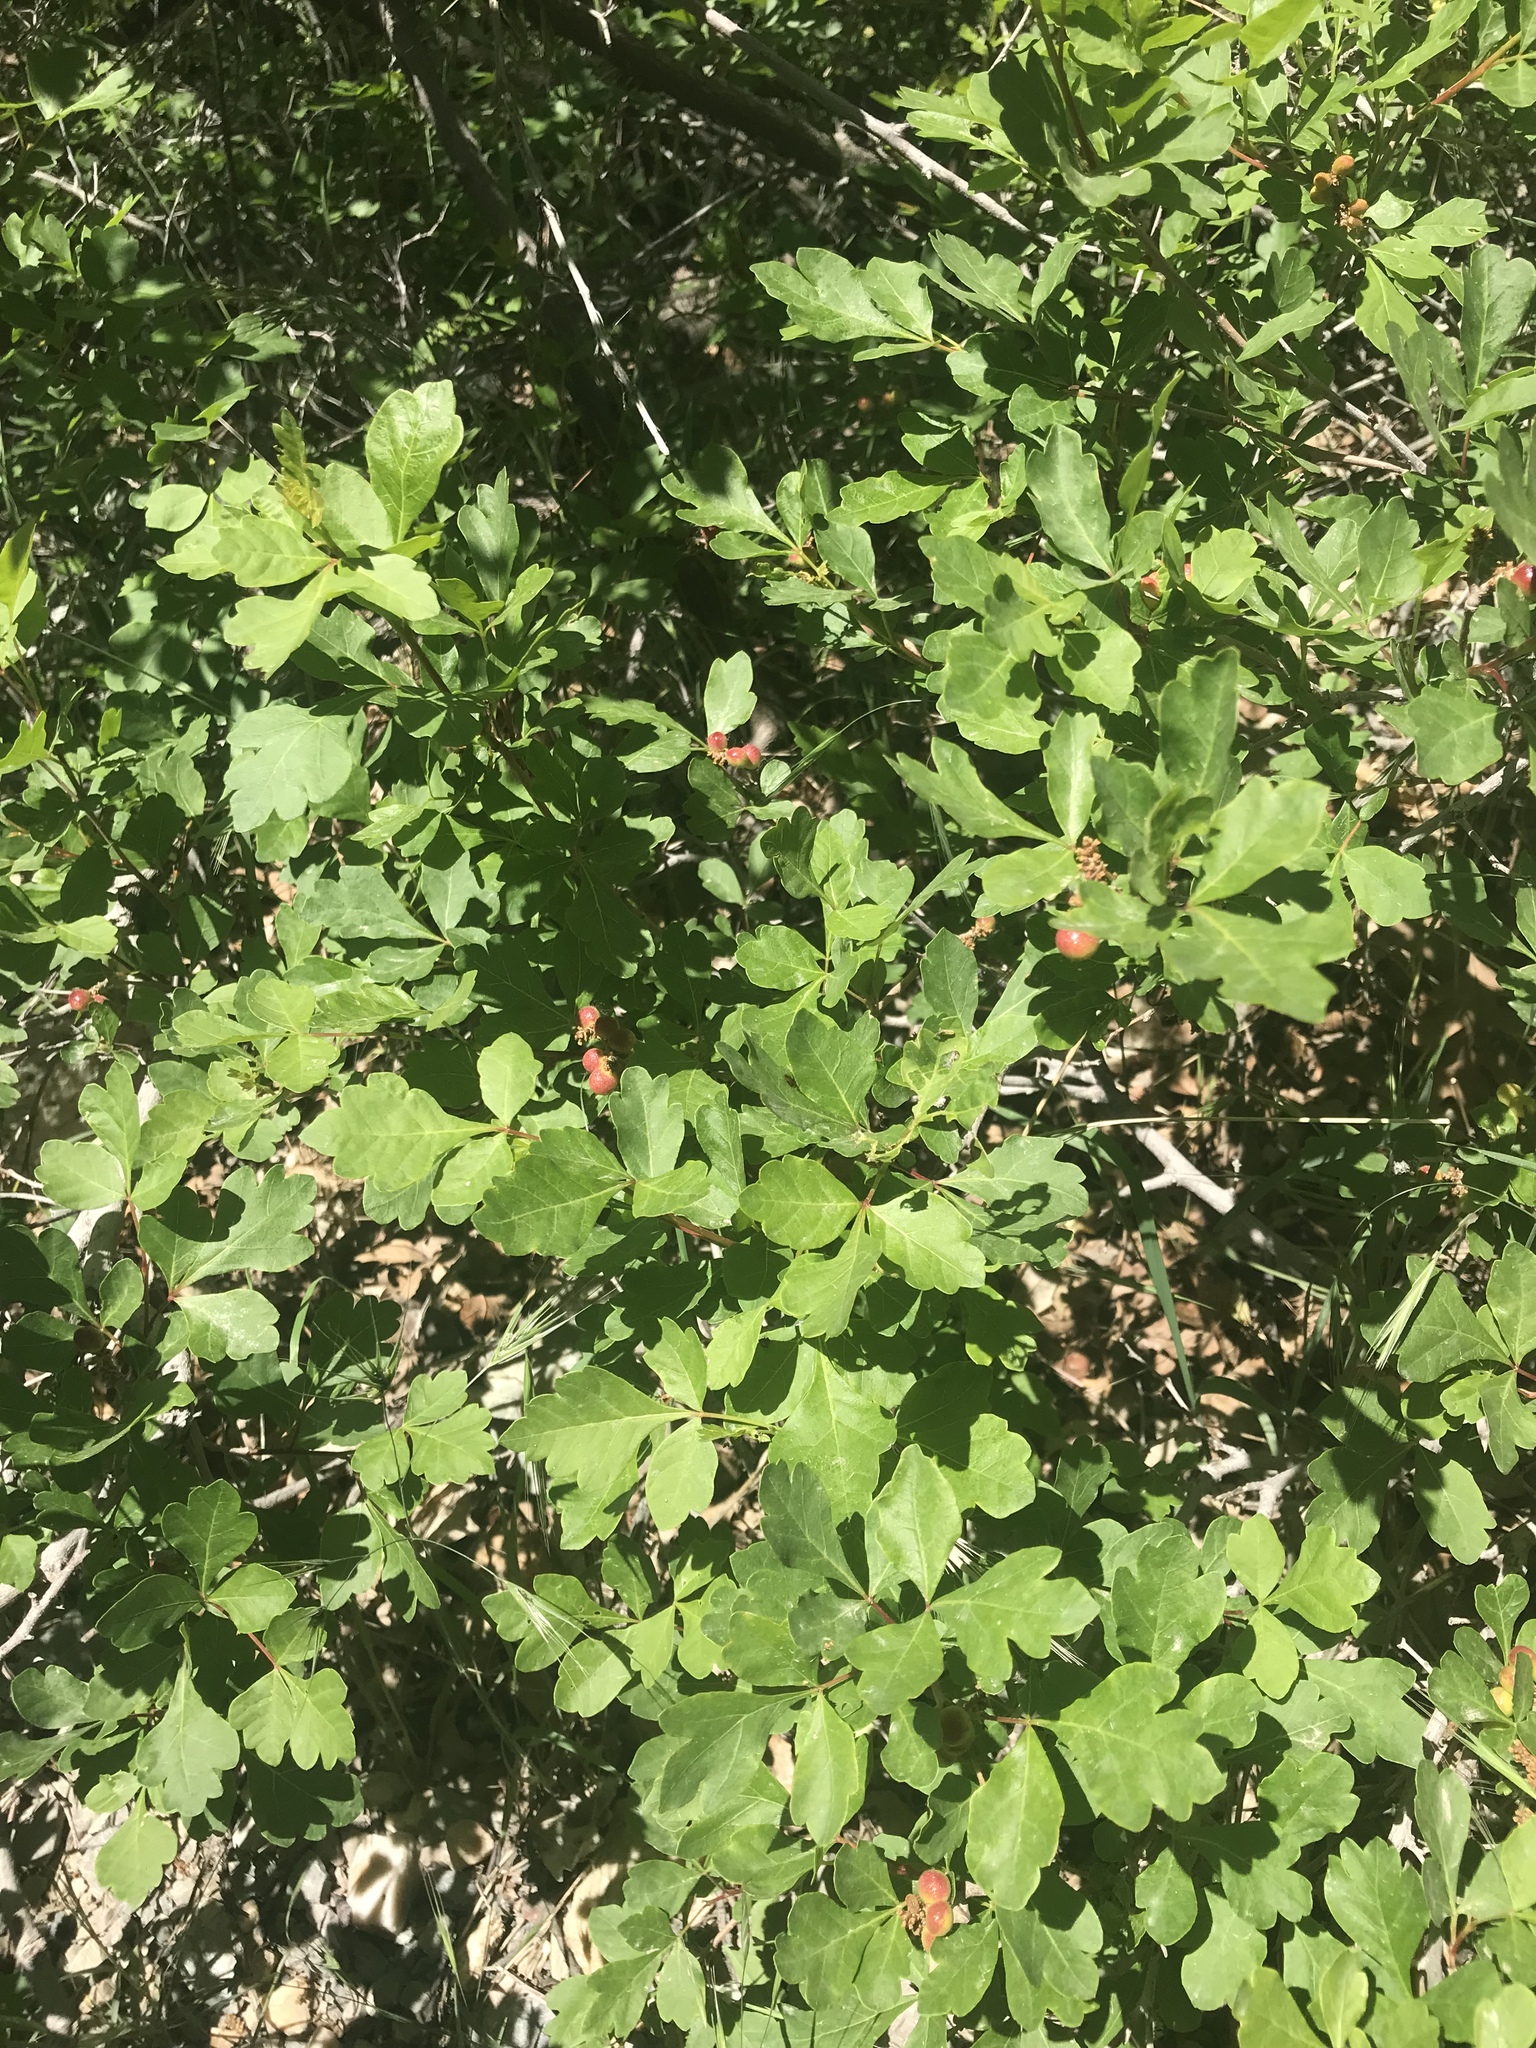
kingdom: Plantae
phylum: Tracheophyta
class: Magnoliopsida
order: Sapindales
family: Anacardiaceae
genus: Rhus
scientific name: Rhus aromatica
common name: Aromatic sumac
